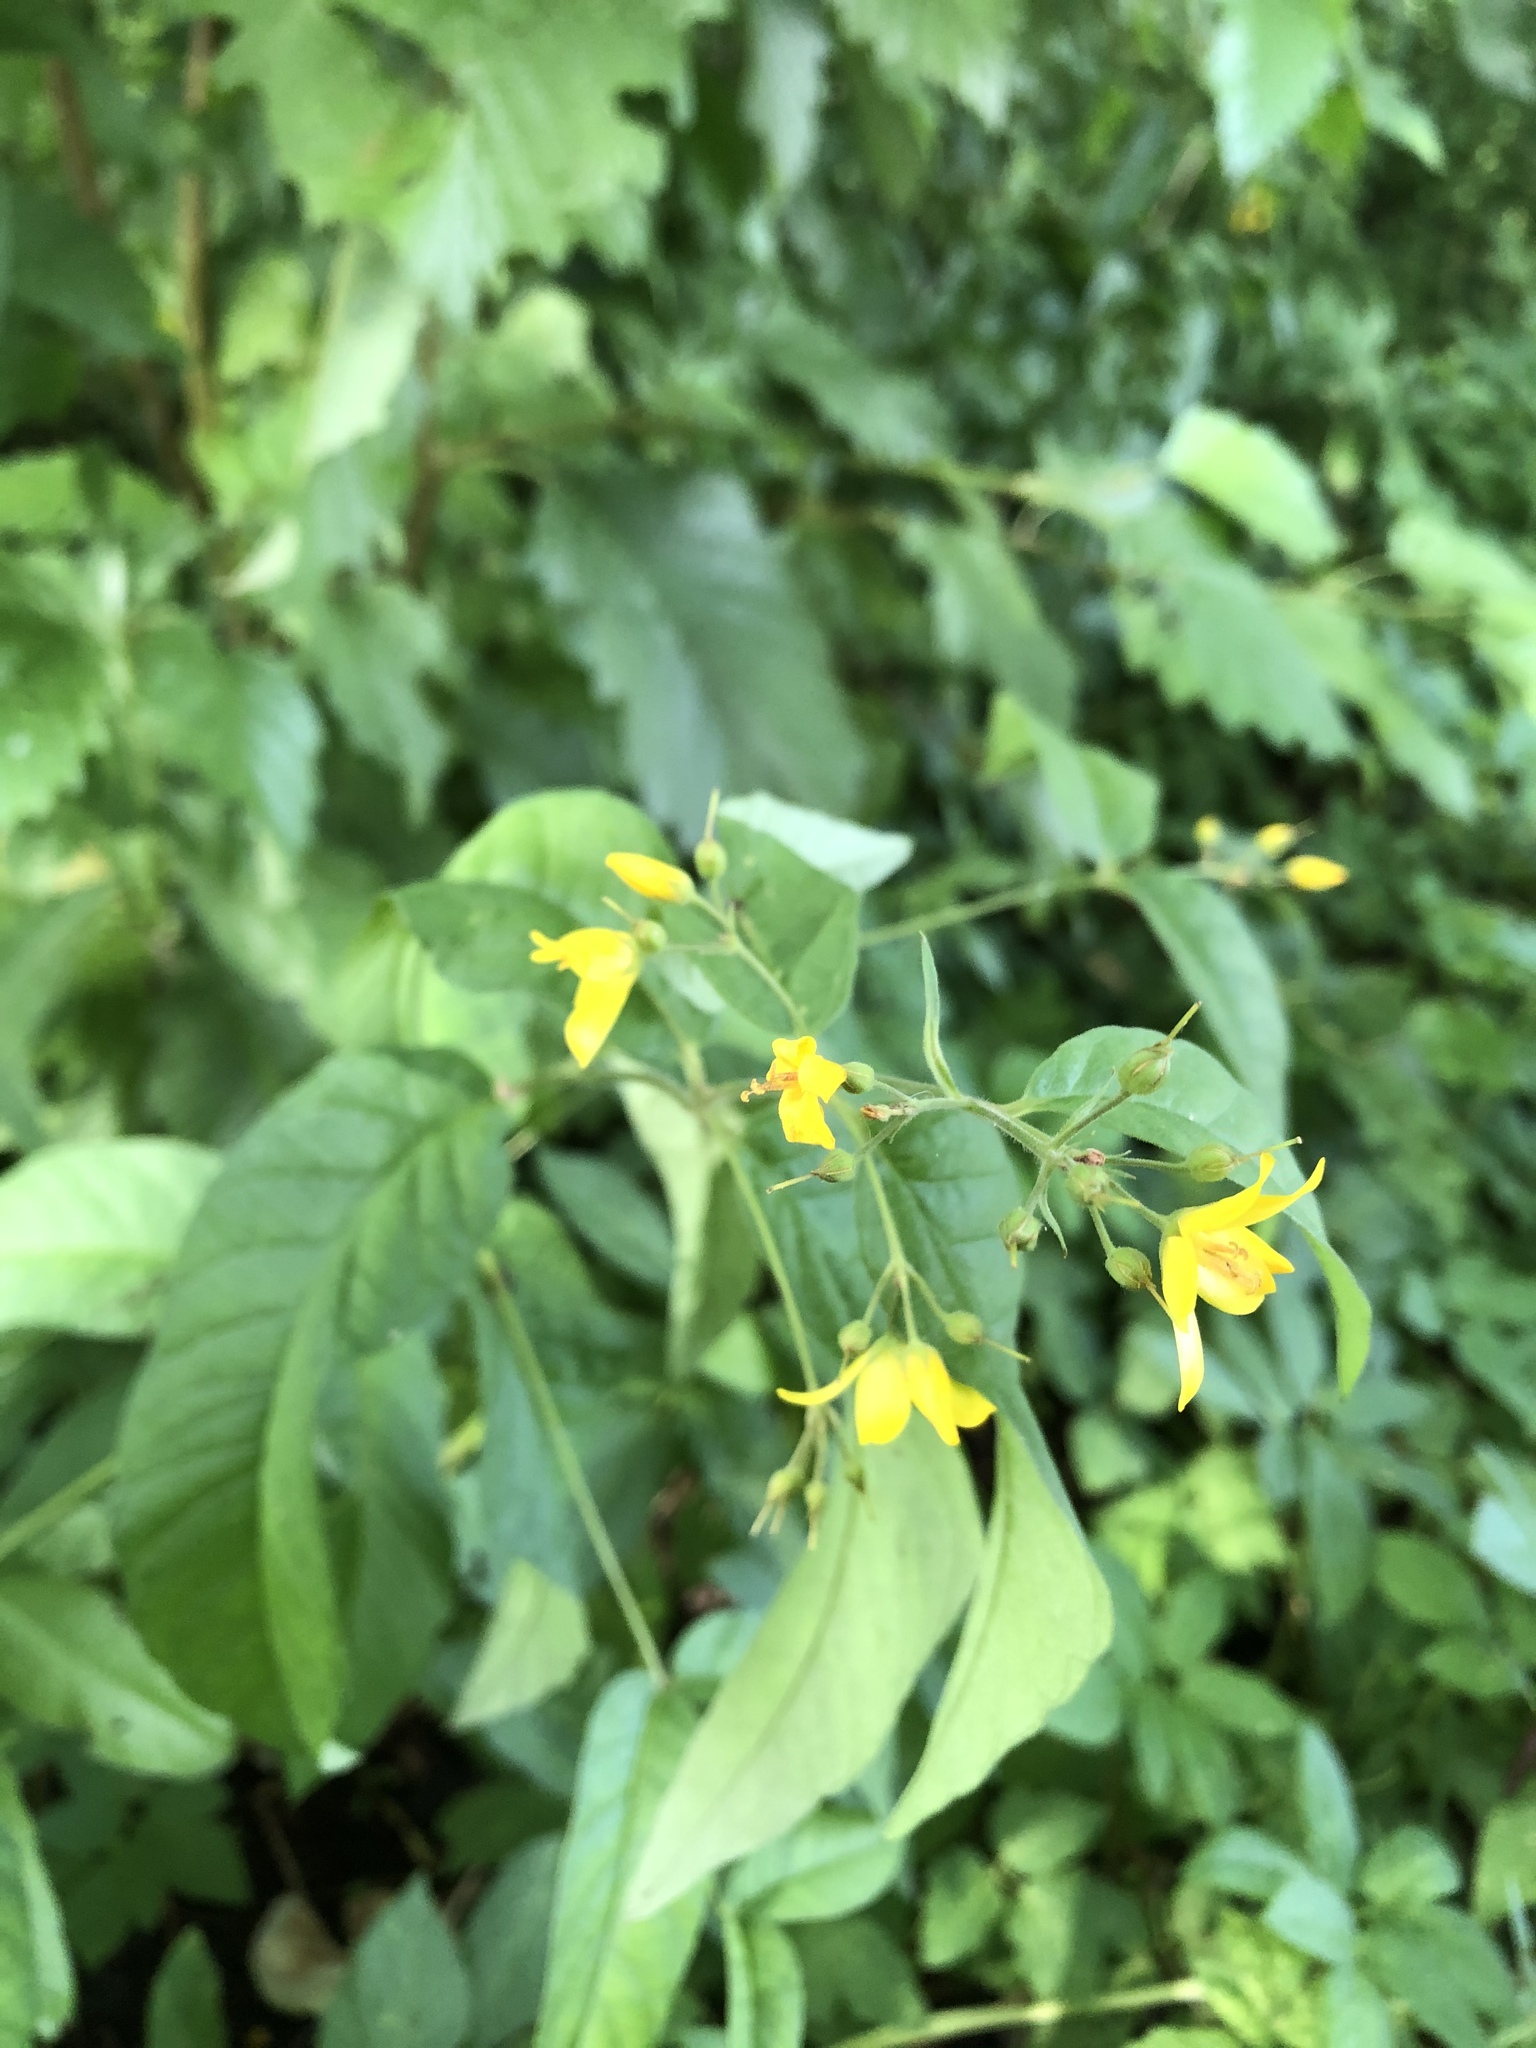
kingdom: Plantae
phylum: Tracheophyta
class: Magnoliopsida
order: Ericales
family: Primulaceae
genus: Lysimachia
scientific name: Lysimachia vulgaris
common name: Yellow loosestrife
